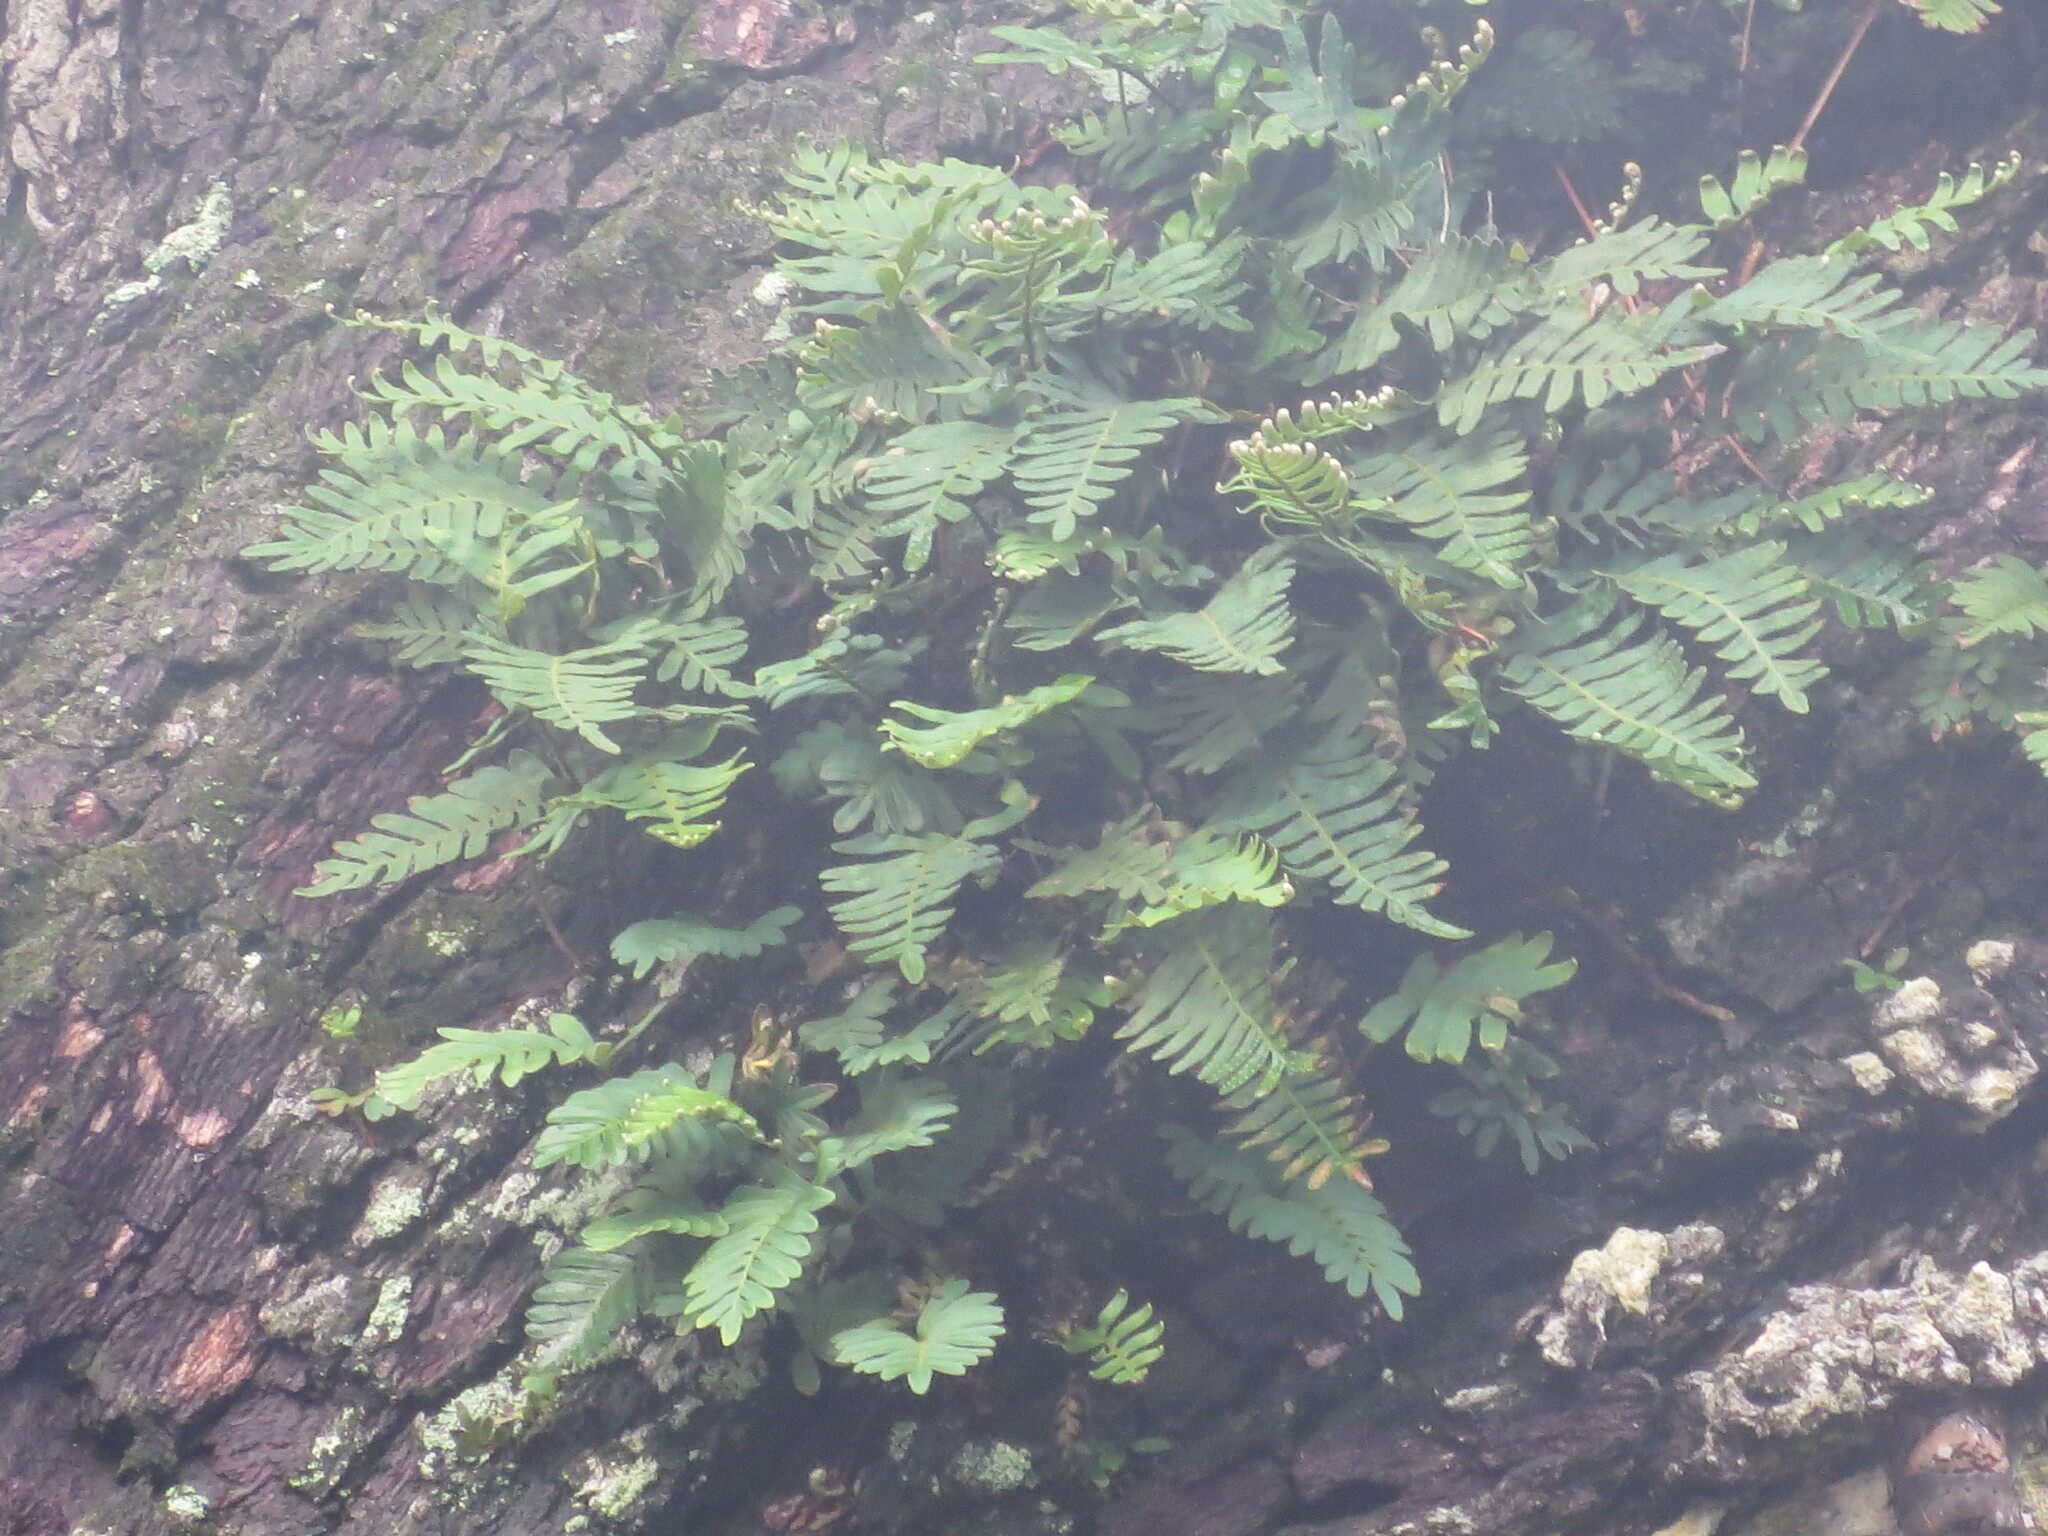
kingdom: Plantae
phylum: Tracheophyta
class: Polypodiopsida
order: Polypodiales
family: Polypodiaceae
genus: Pleopeltis
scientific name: Pleopeltis michauxiana
